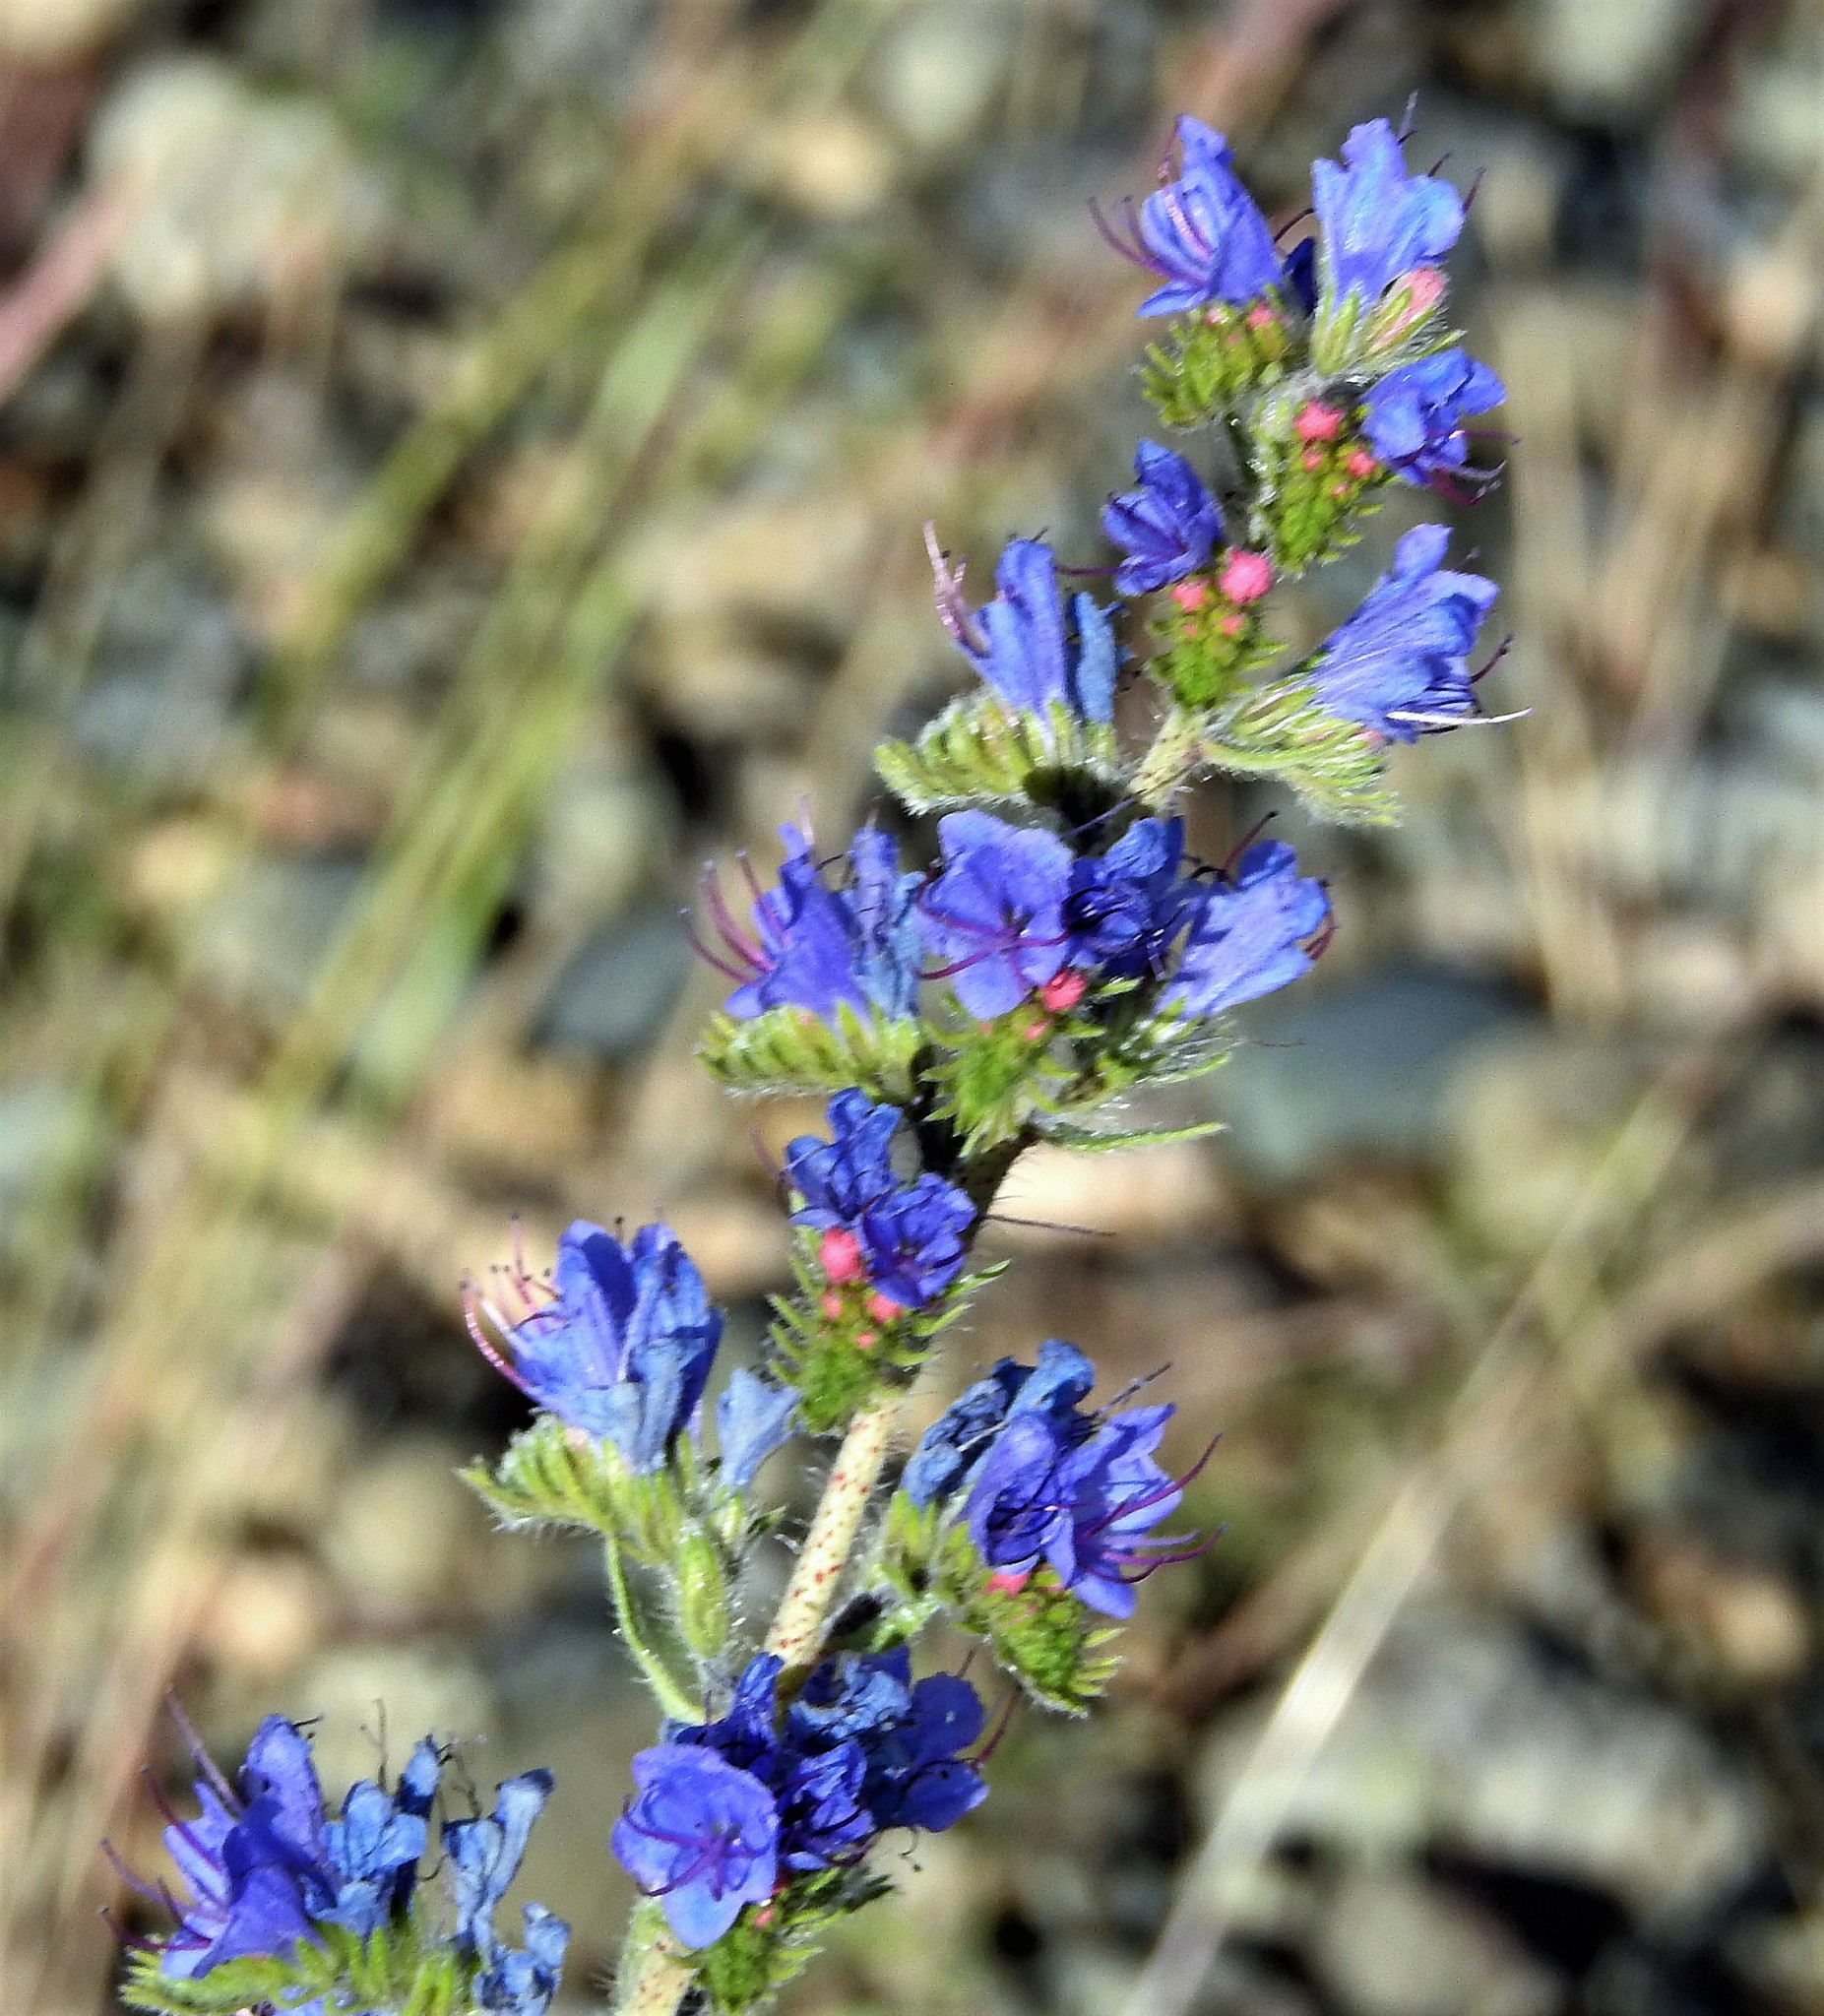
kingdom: Plantae
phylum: Tracheophyta
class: Magnoliopsida
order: Boraginales
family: Boraginaceae
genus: Echium
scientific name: Echium vulgare
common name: Common viper's bugloss
